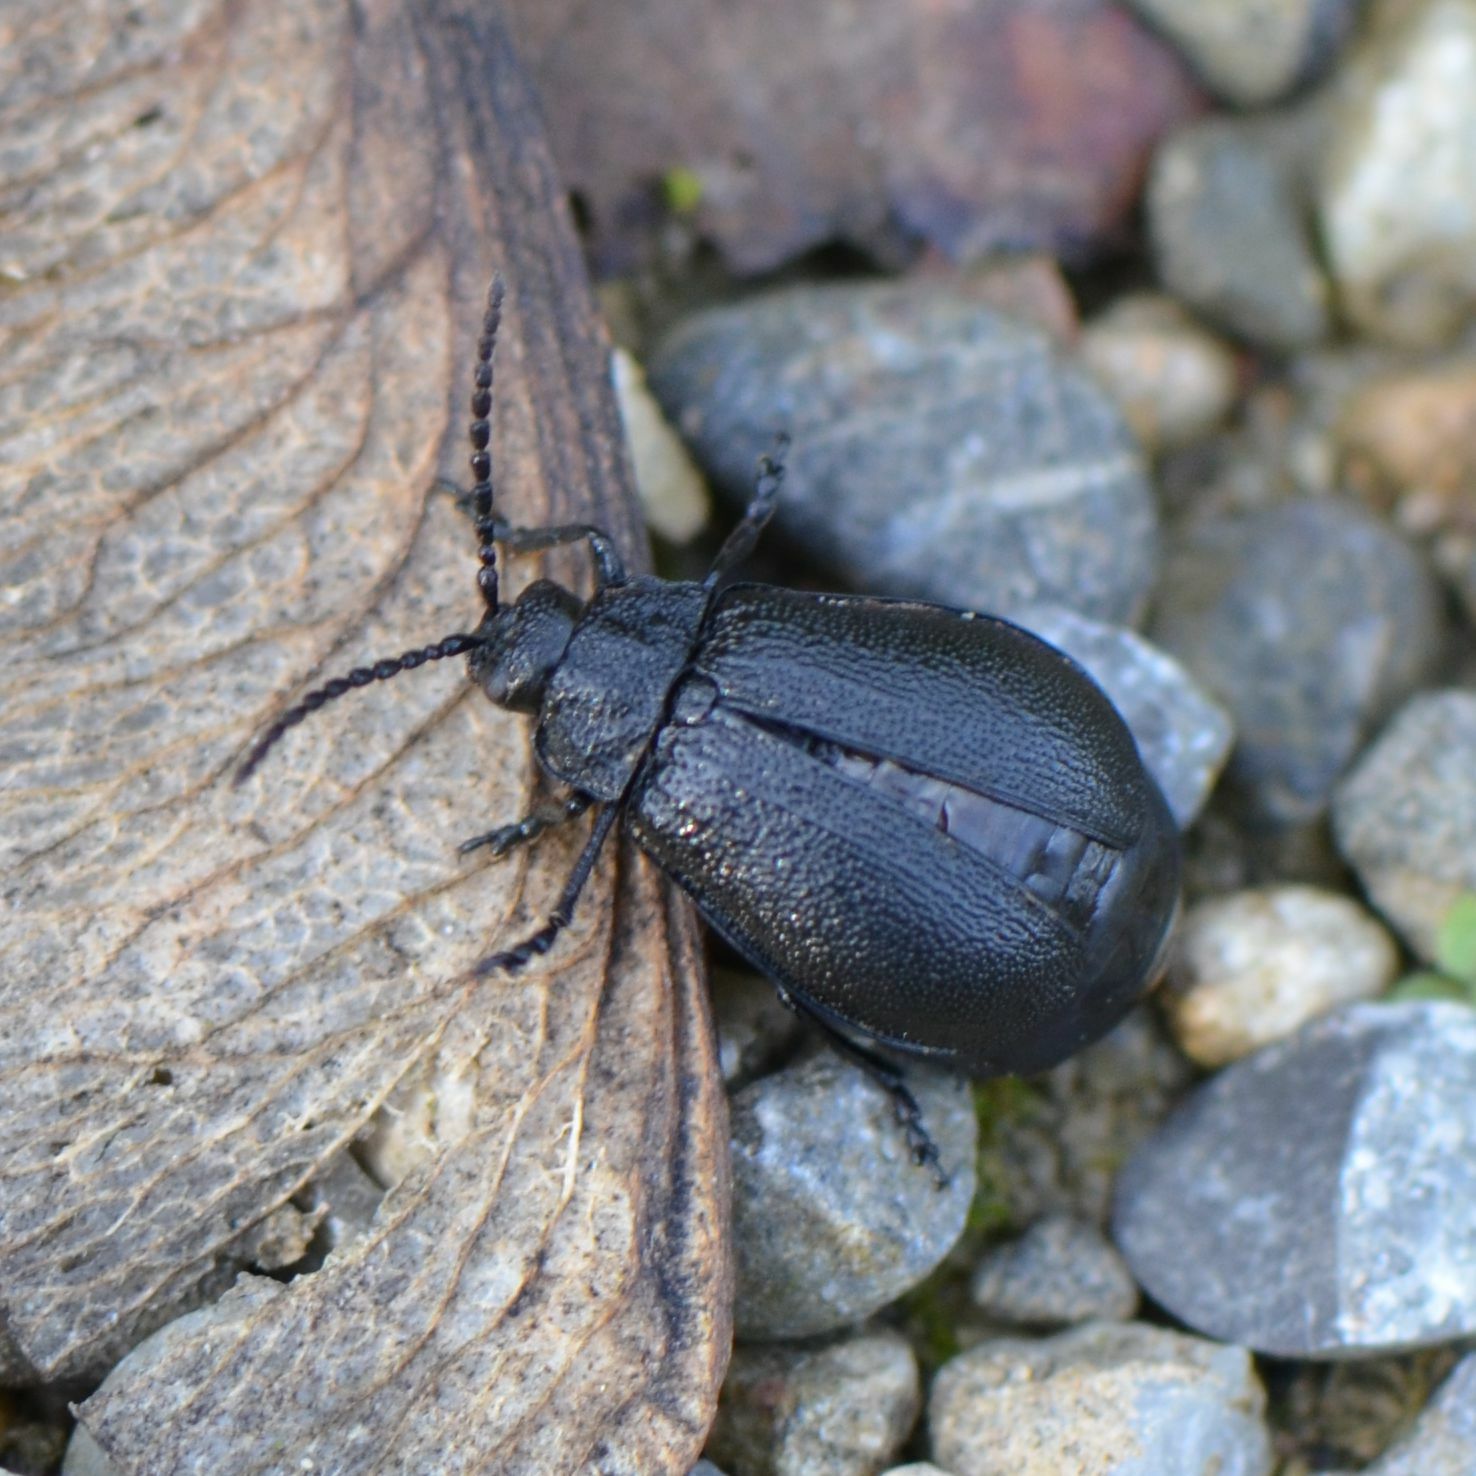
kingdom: Animalia
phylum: Arthropoda
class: Insecta
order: Coleoptera
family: Chrysomelidae
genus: Galeruca
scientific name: Galeruca tanaceti
